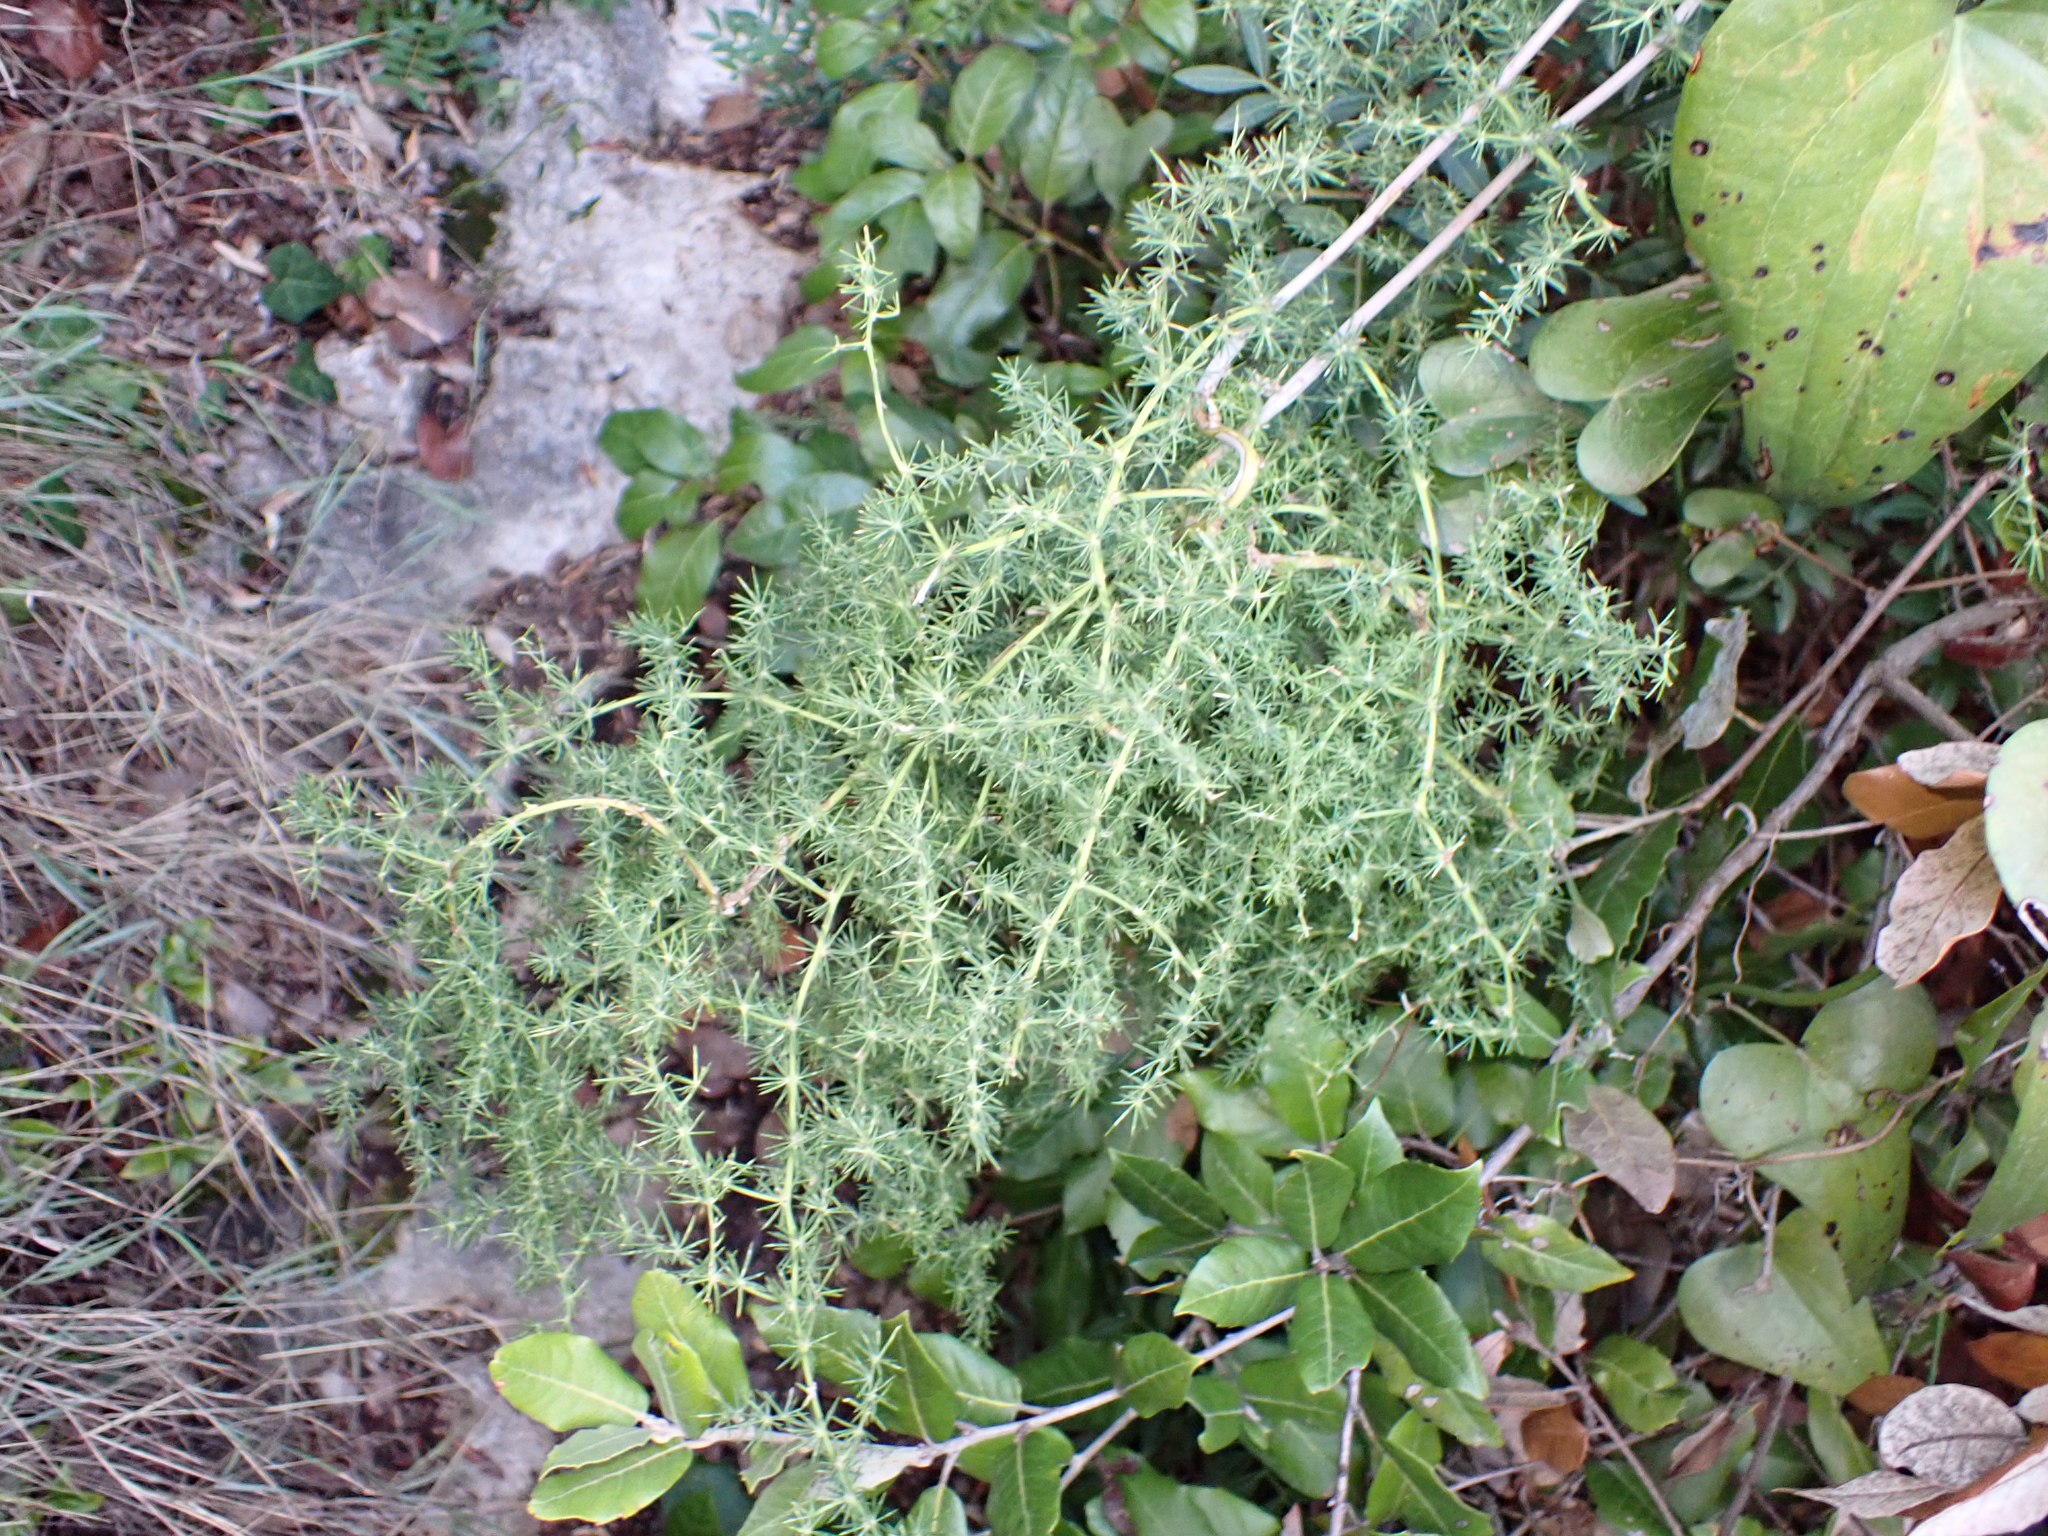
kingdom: Plantae
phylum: Tracheophyta
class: Liliopsida
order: Asparagales
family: Asparagaceae
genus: Asparagus
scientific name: Asparagus acutifolius
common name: Wild asparagus
